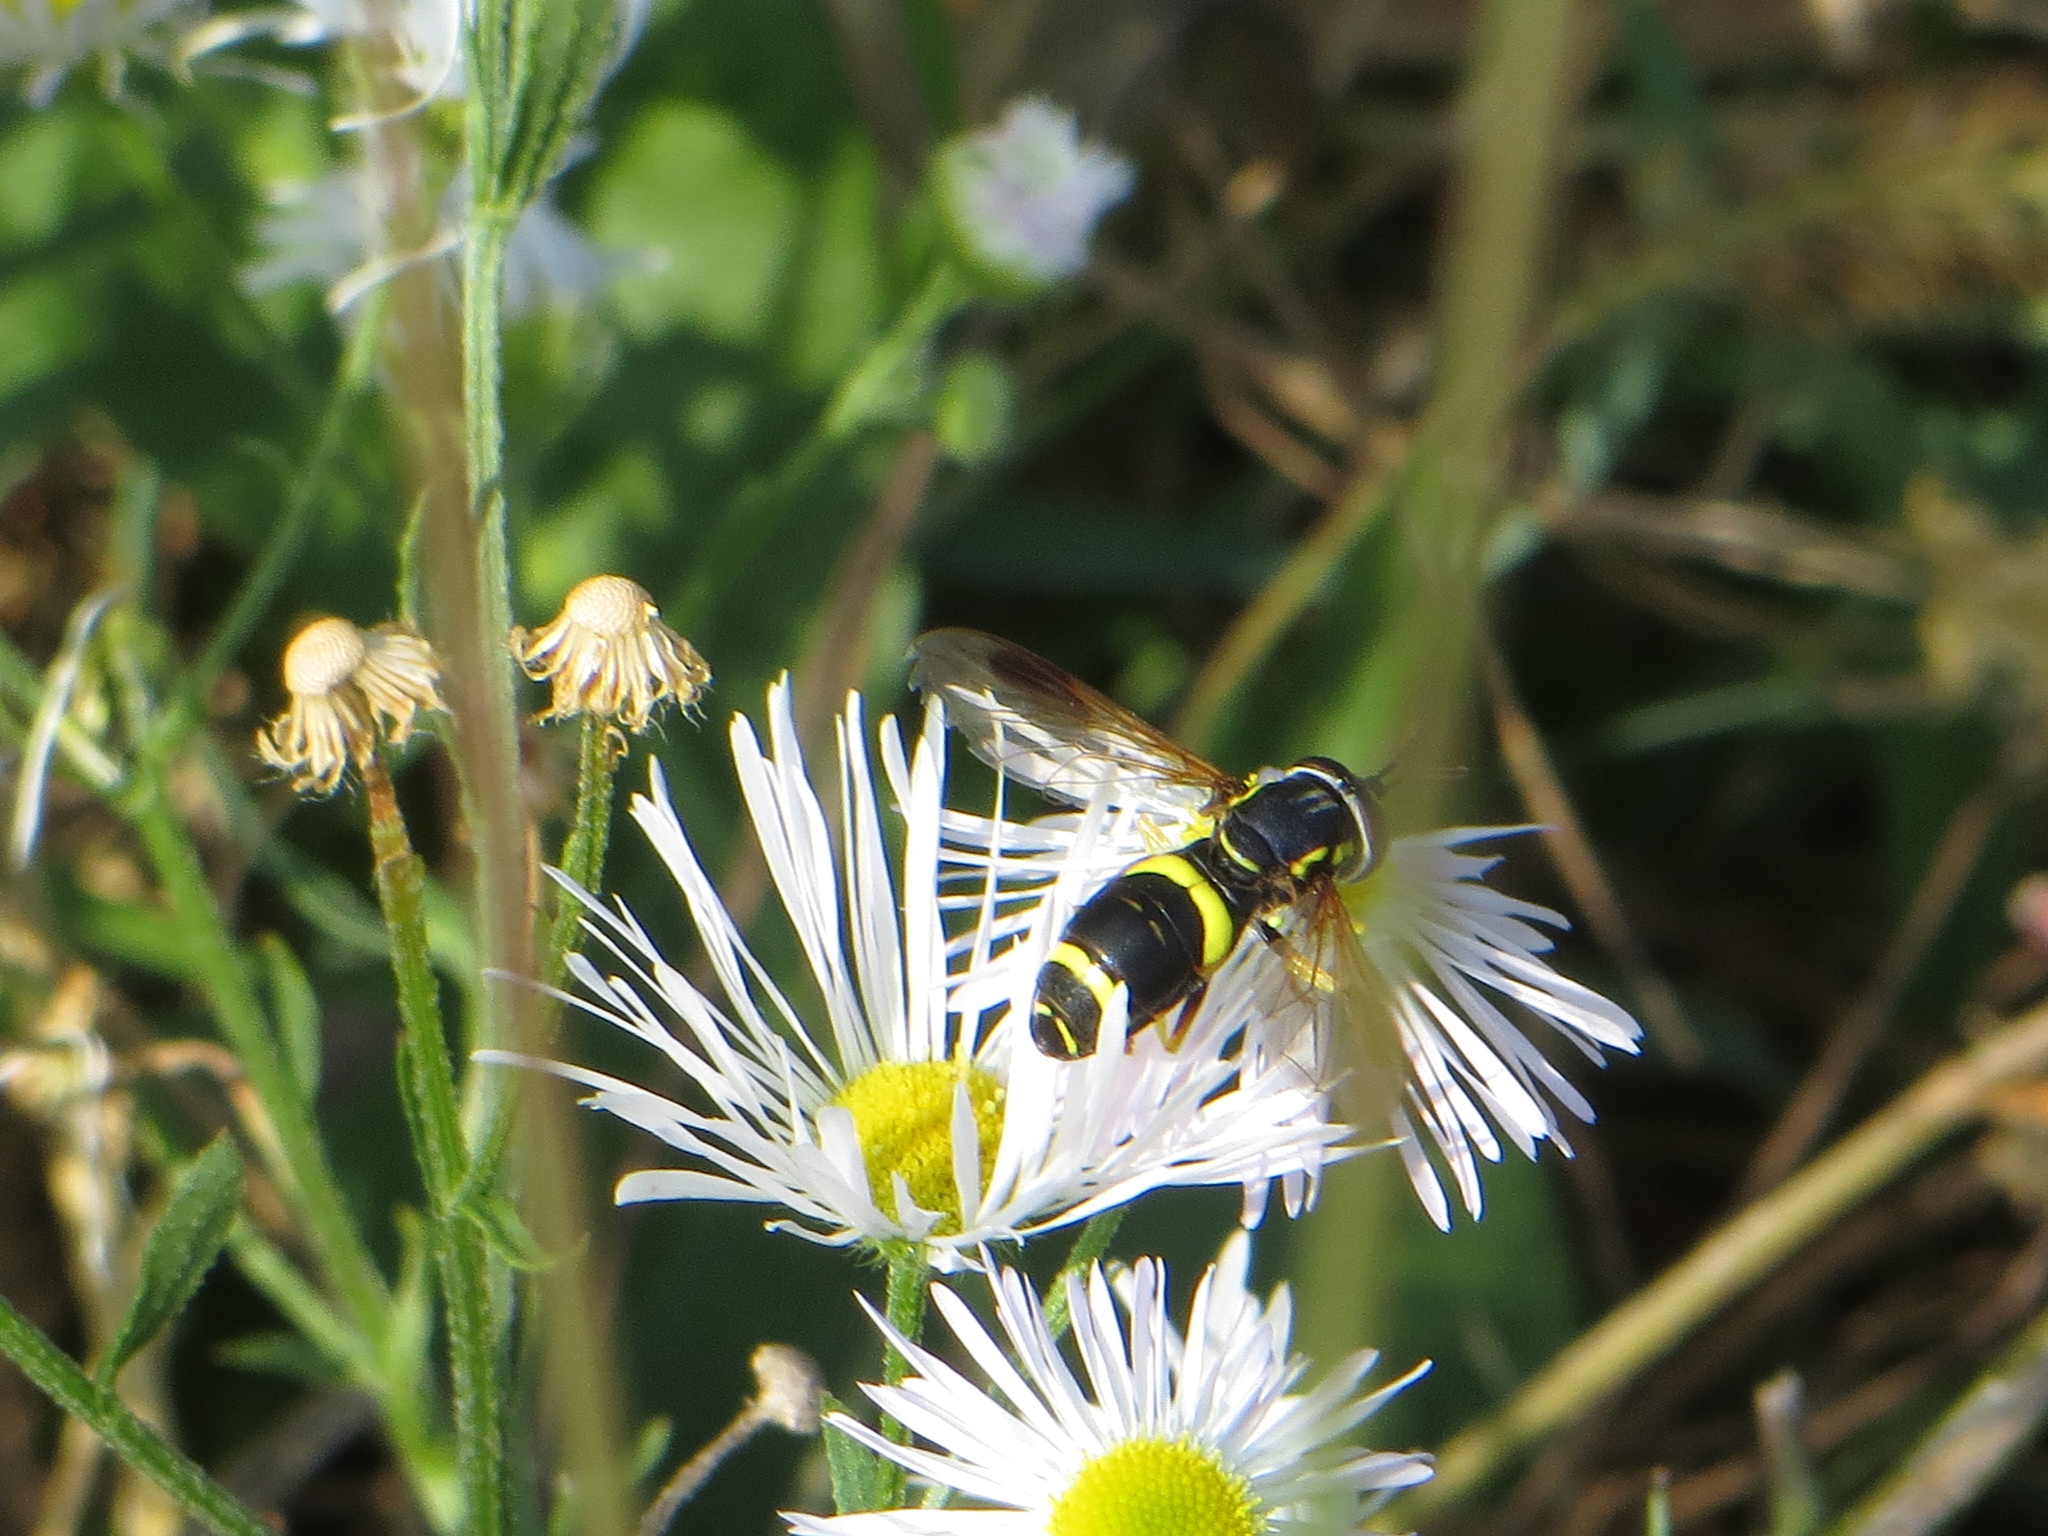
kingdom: Animalia
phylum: Arthropoda
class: Insecta
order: Diptera
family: Syrphidae
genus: Chrysotoxum
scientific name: Chrysotoxum bicincta
